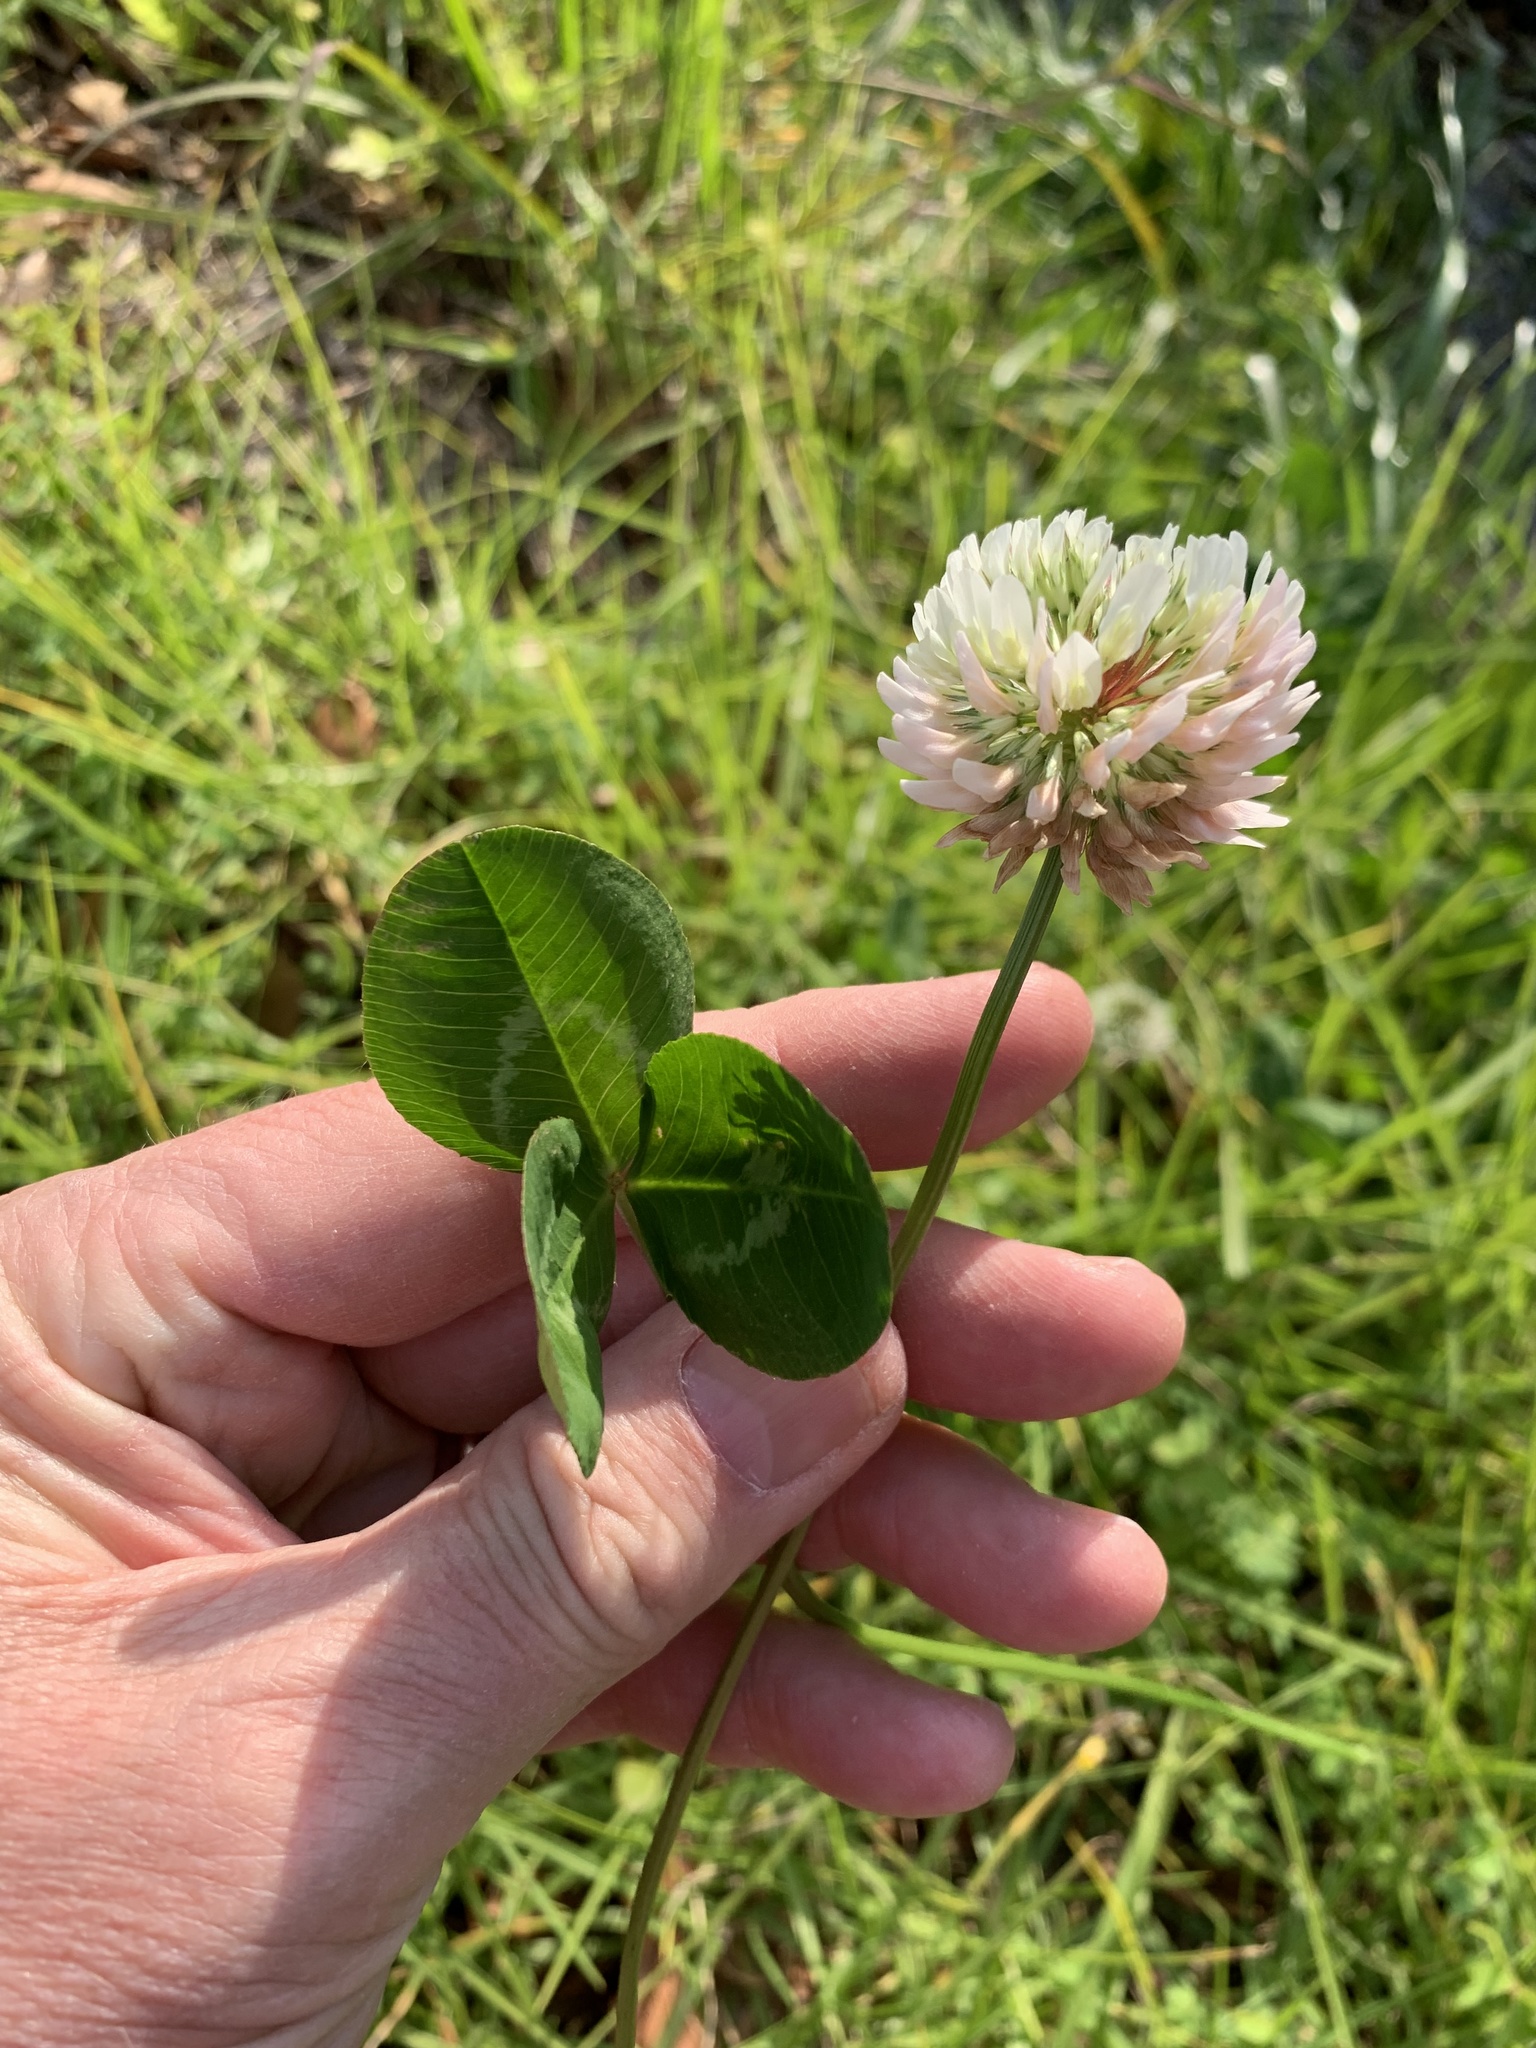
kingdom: Plantae
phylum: Tracheophyta
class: Magnoliopsida
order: Fabales
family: Fabaceae
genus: Trifolium
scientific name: Trifolium repens
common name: White clover
